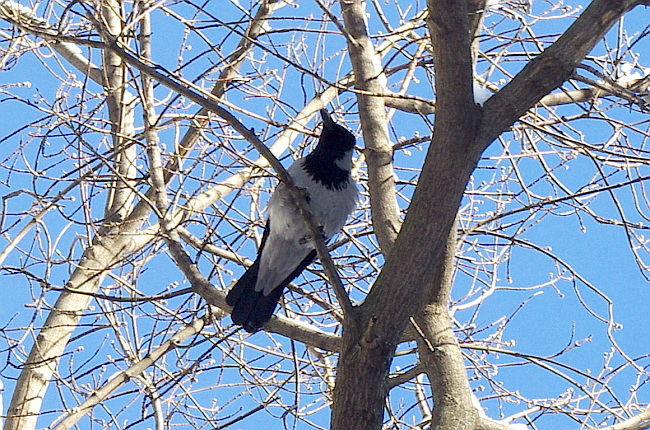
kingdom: Animalia
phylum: Chordata
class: Aves
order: Passeriformes
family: Corvidae
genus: Corvus
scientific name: Corvus cornix
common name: Hooded crow
